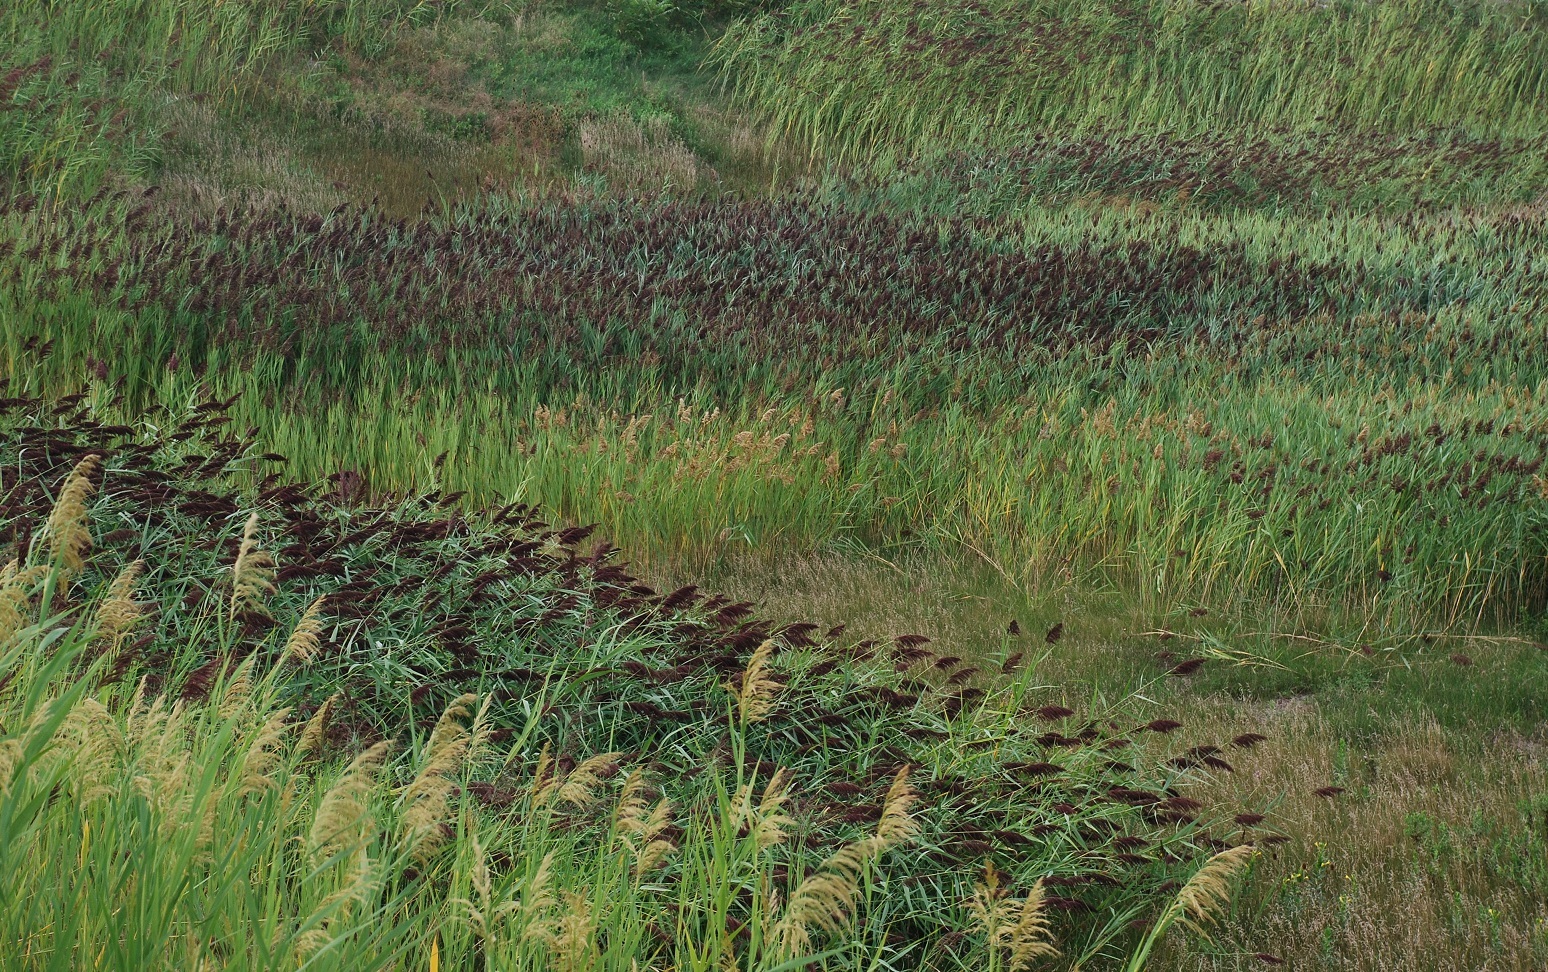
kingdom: Plantae
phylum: Tracheophyta
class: Liliopsida
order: Poales
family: Poaceae
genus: Phragmites
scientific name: Phragmites australis
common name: Common reed
